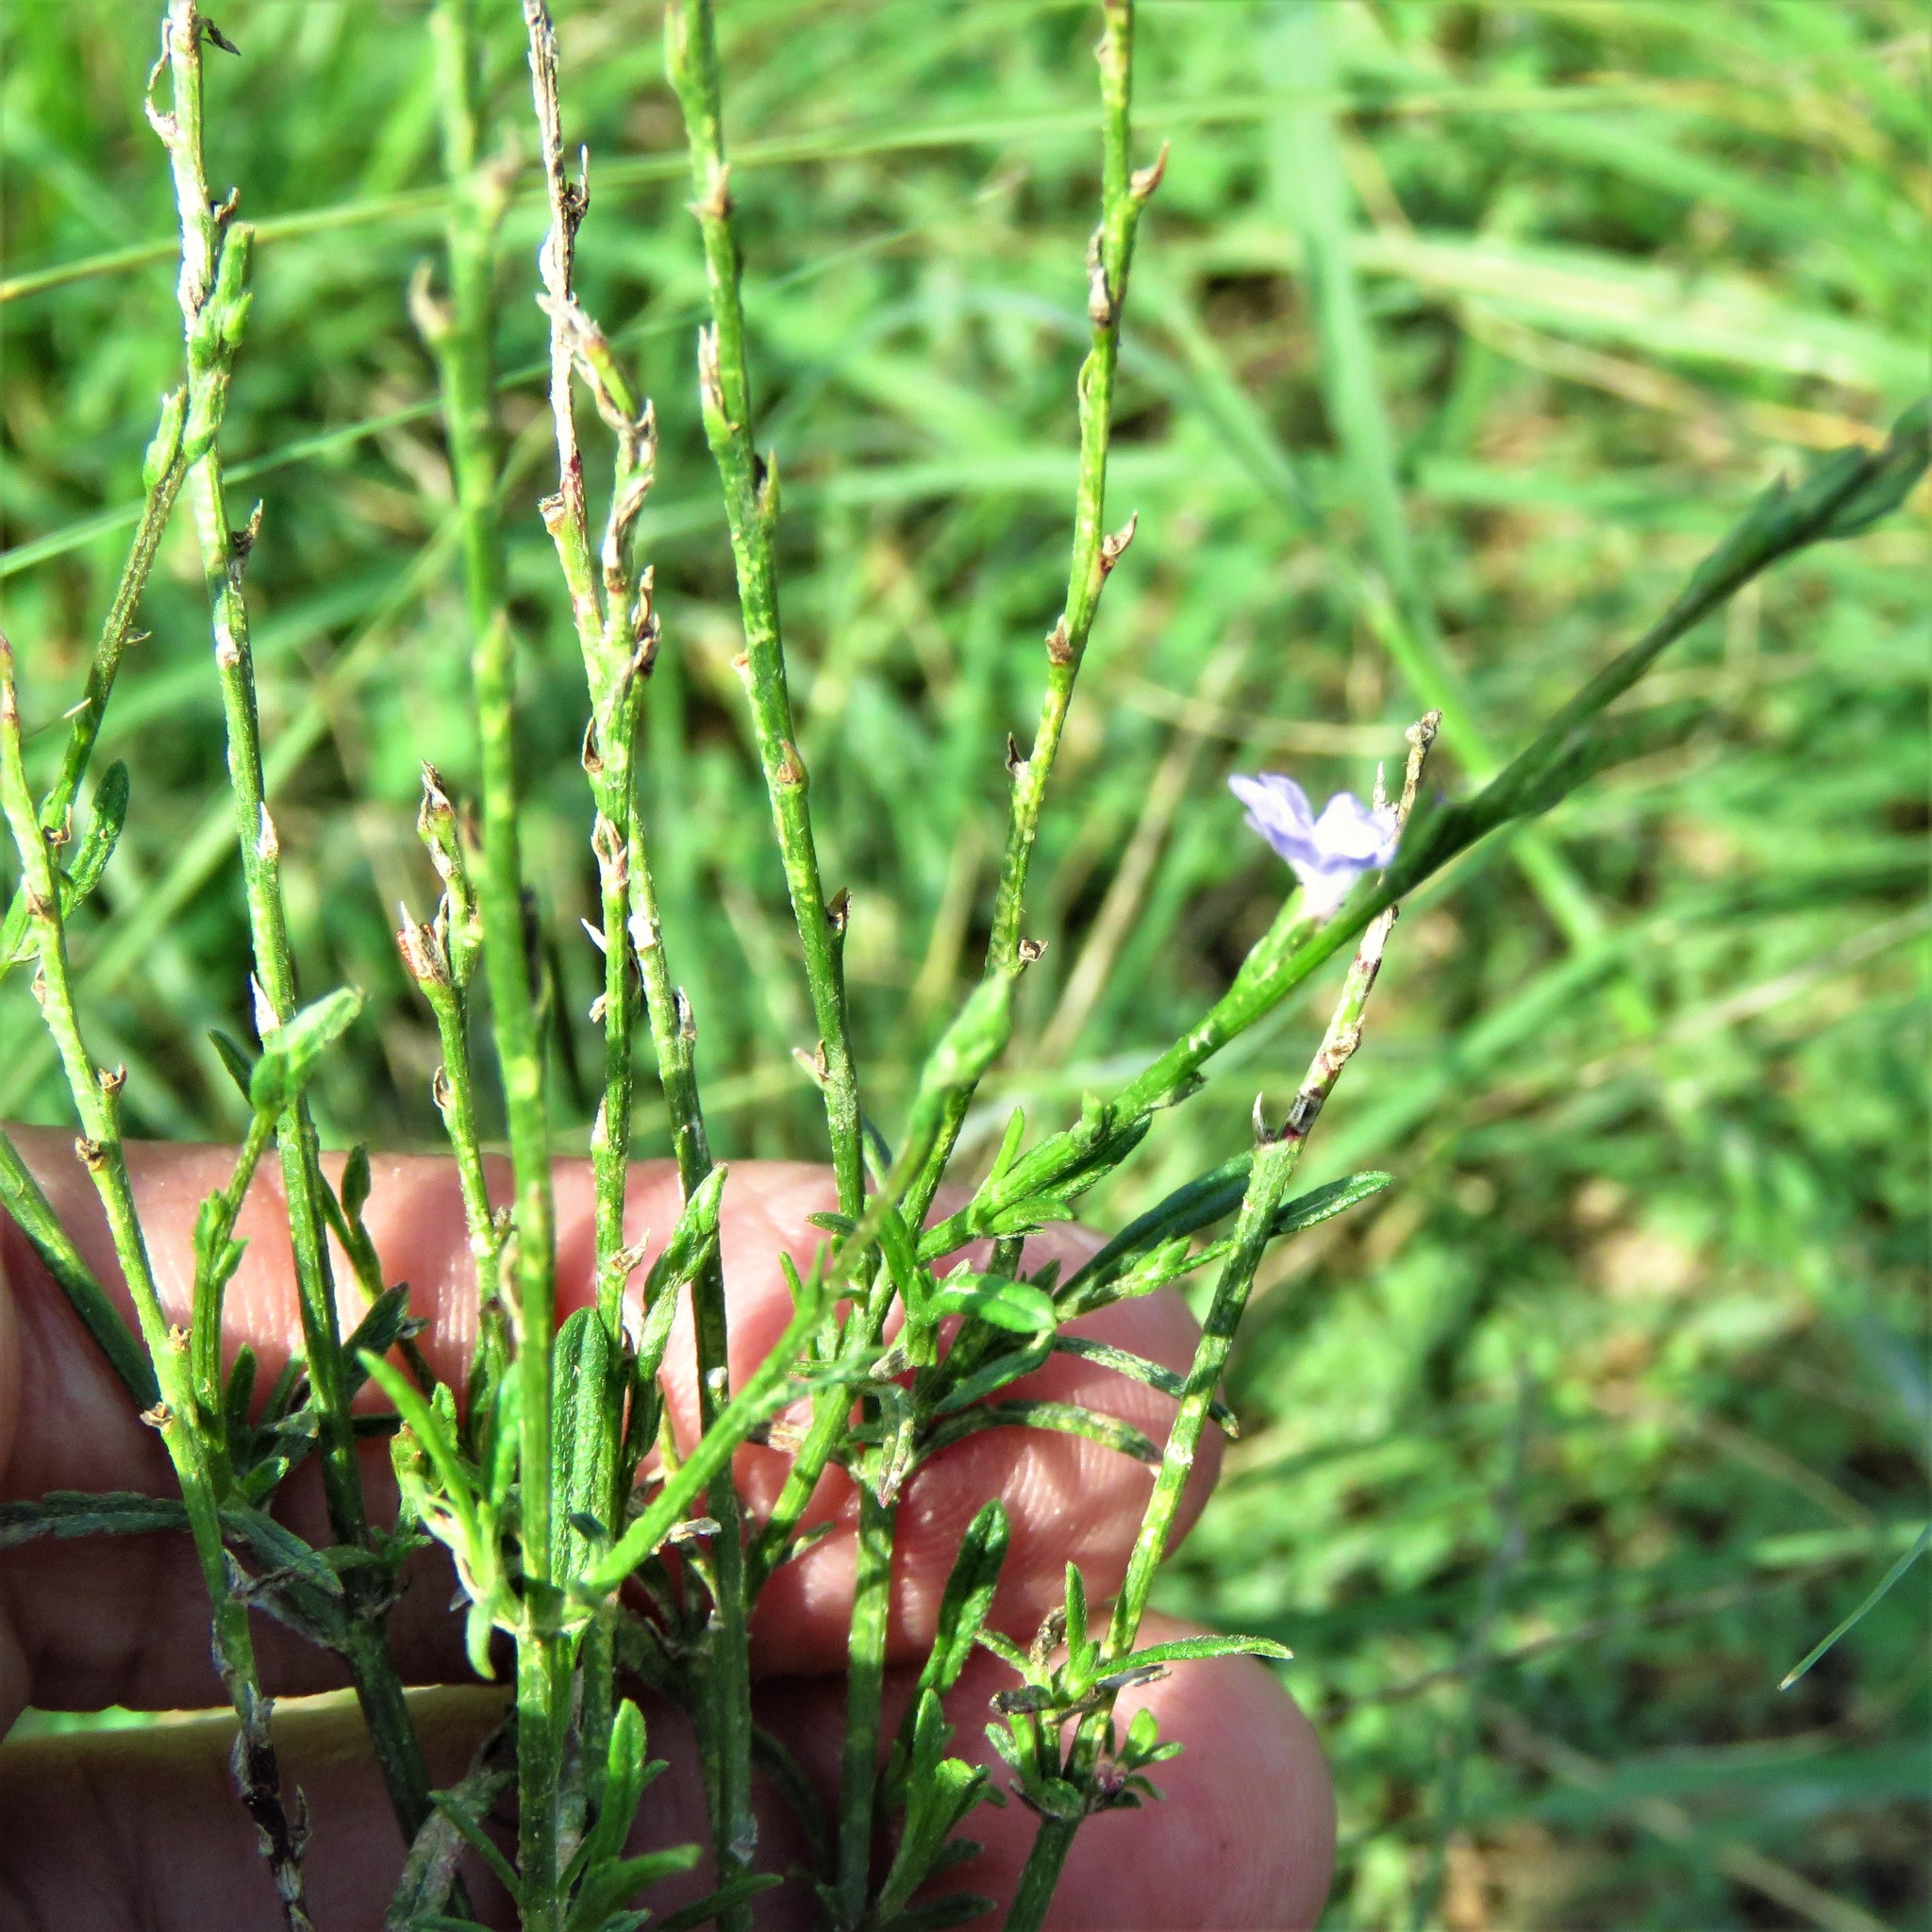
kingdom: Plantae
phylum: Tracheophyta
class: Magnoliopsida
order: Lamiales
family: Verbenaceae
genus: Verbena
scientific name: Verbena halei
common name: Texas vervain
